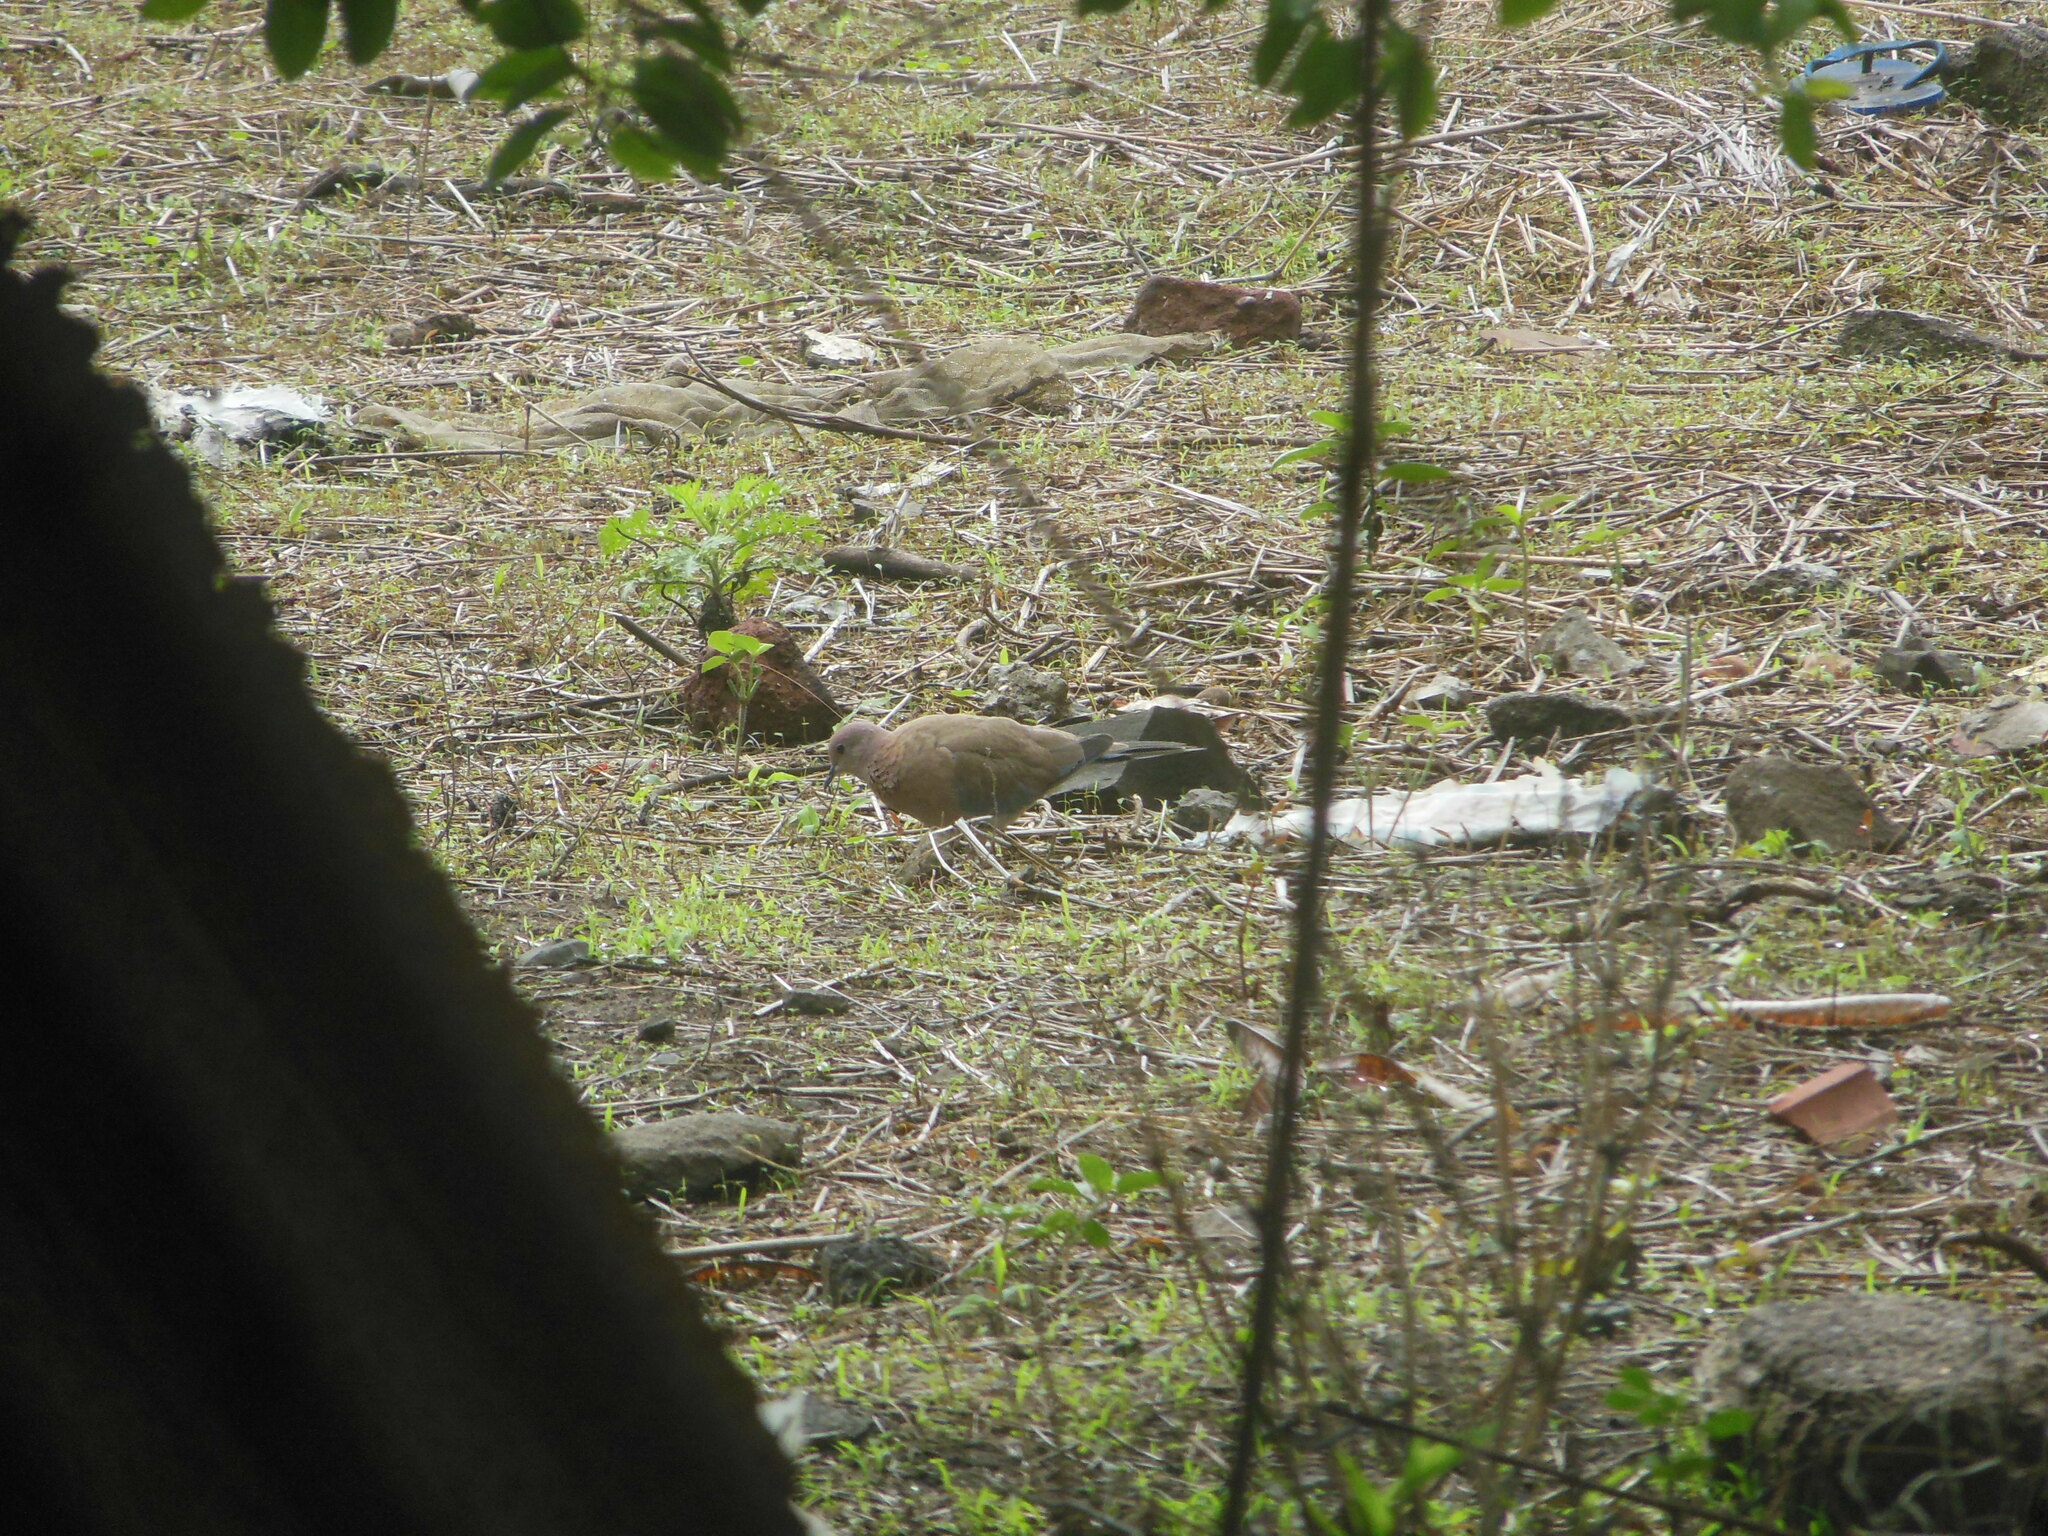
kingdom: Animalia
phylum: Chordata
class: Aves
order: Columbiformes
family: Columbidae
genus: Spilopelia
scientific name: Spilopelia senegalensis
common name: Laughing dove
